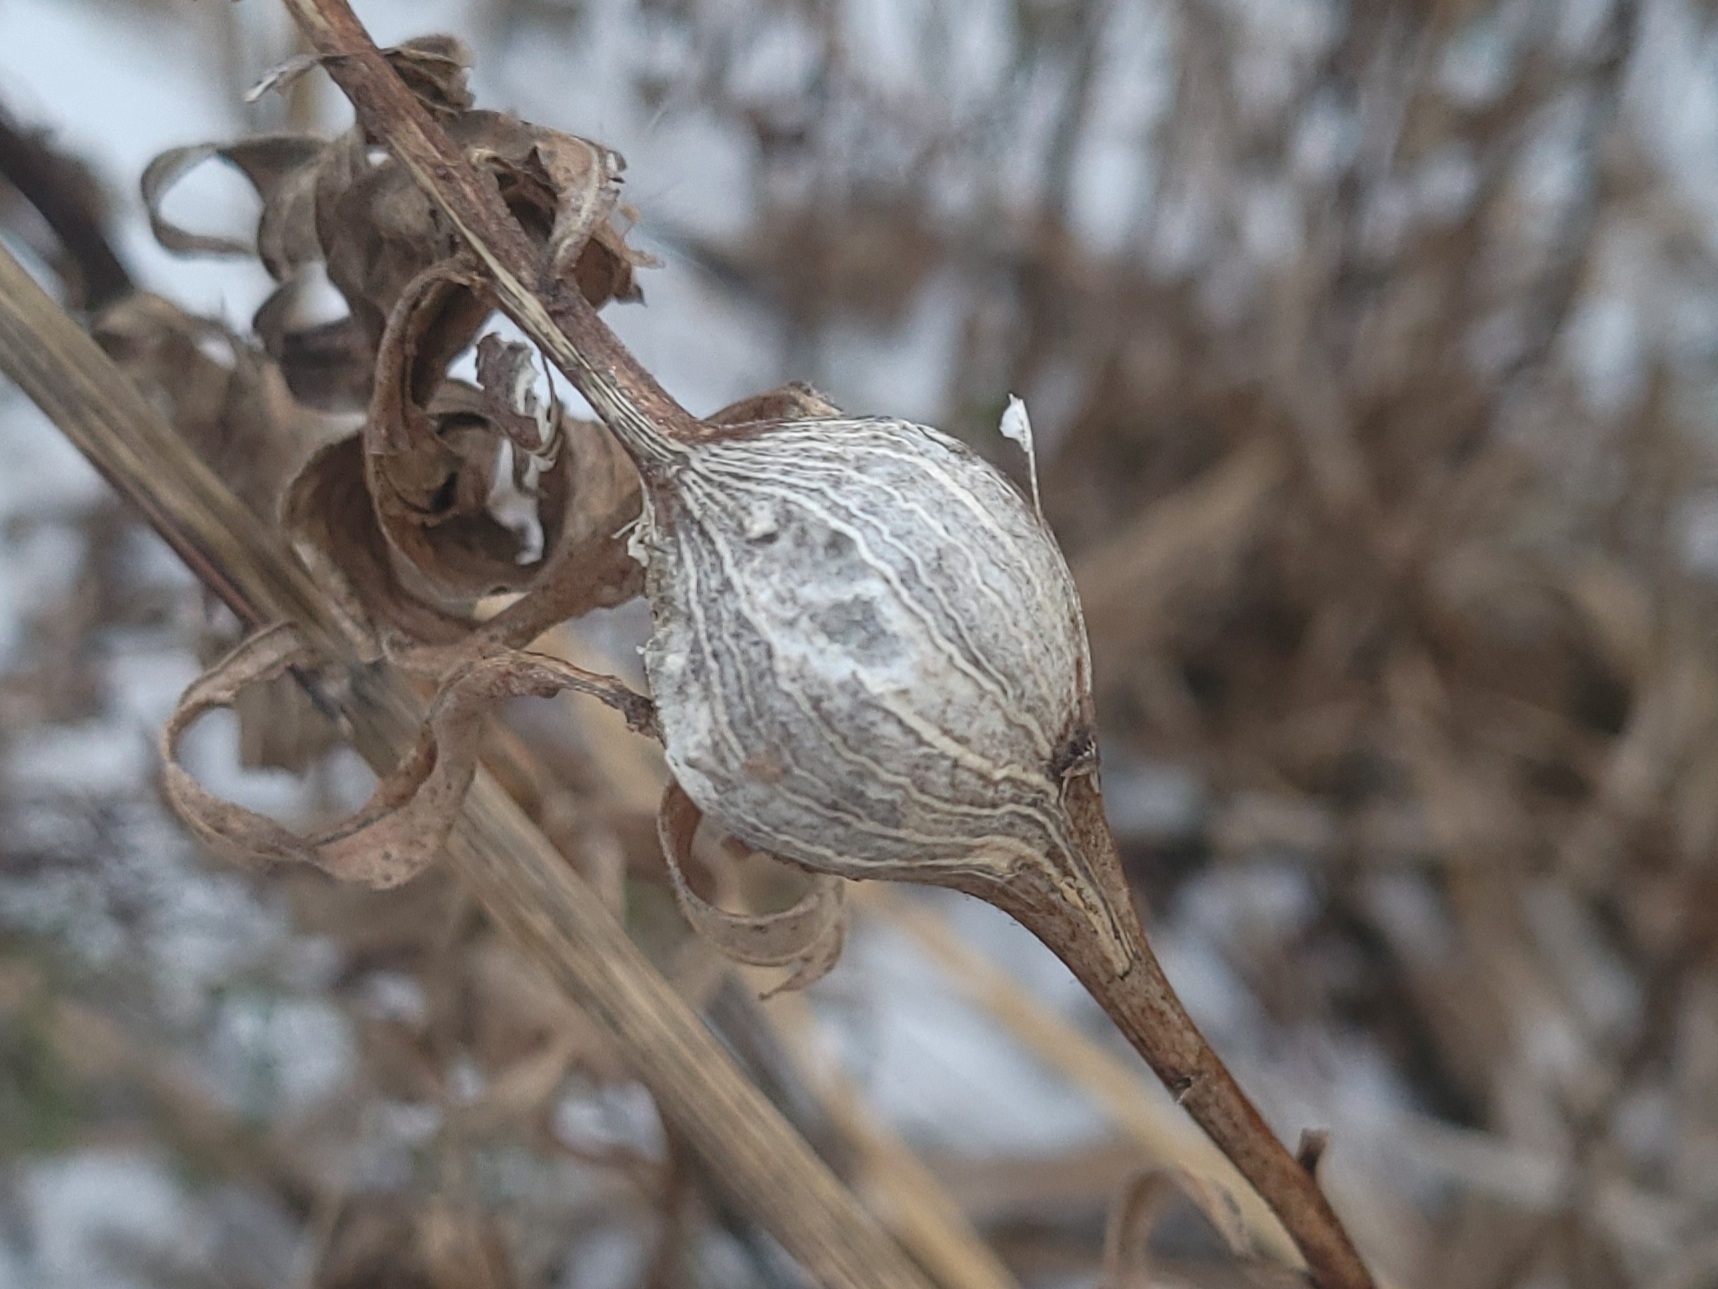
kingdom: Animalia
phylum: Arthropoda
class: Insecta
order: Diptera
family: Tephritidae
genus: Eurosta
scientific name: Eurosta solidaginis
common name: Goldenrod gall fly
